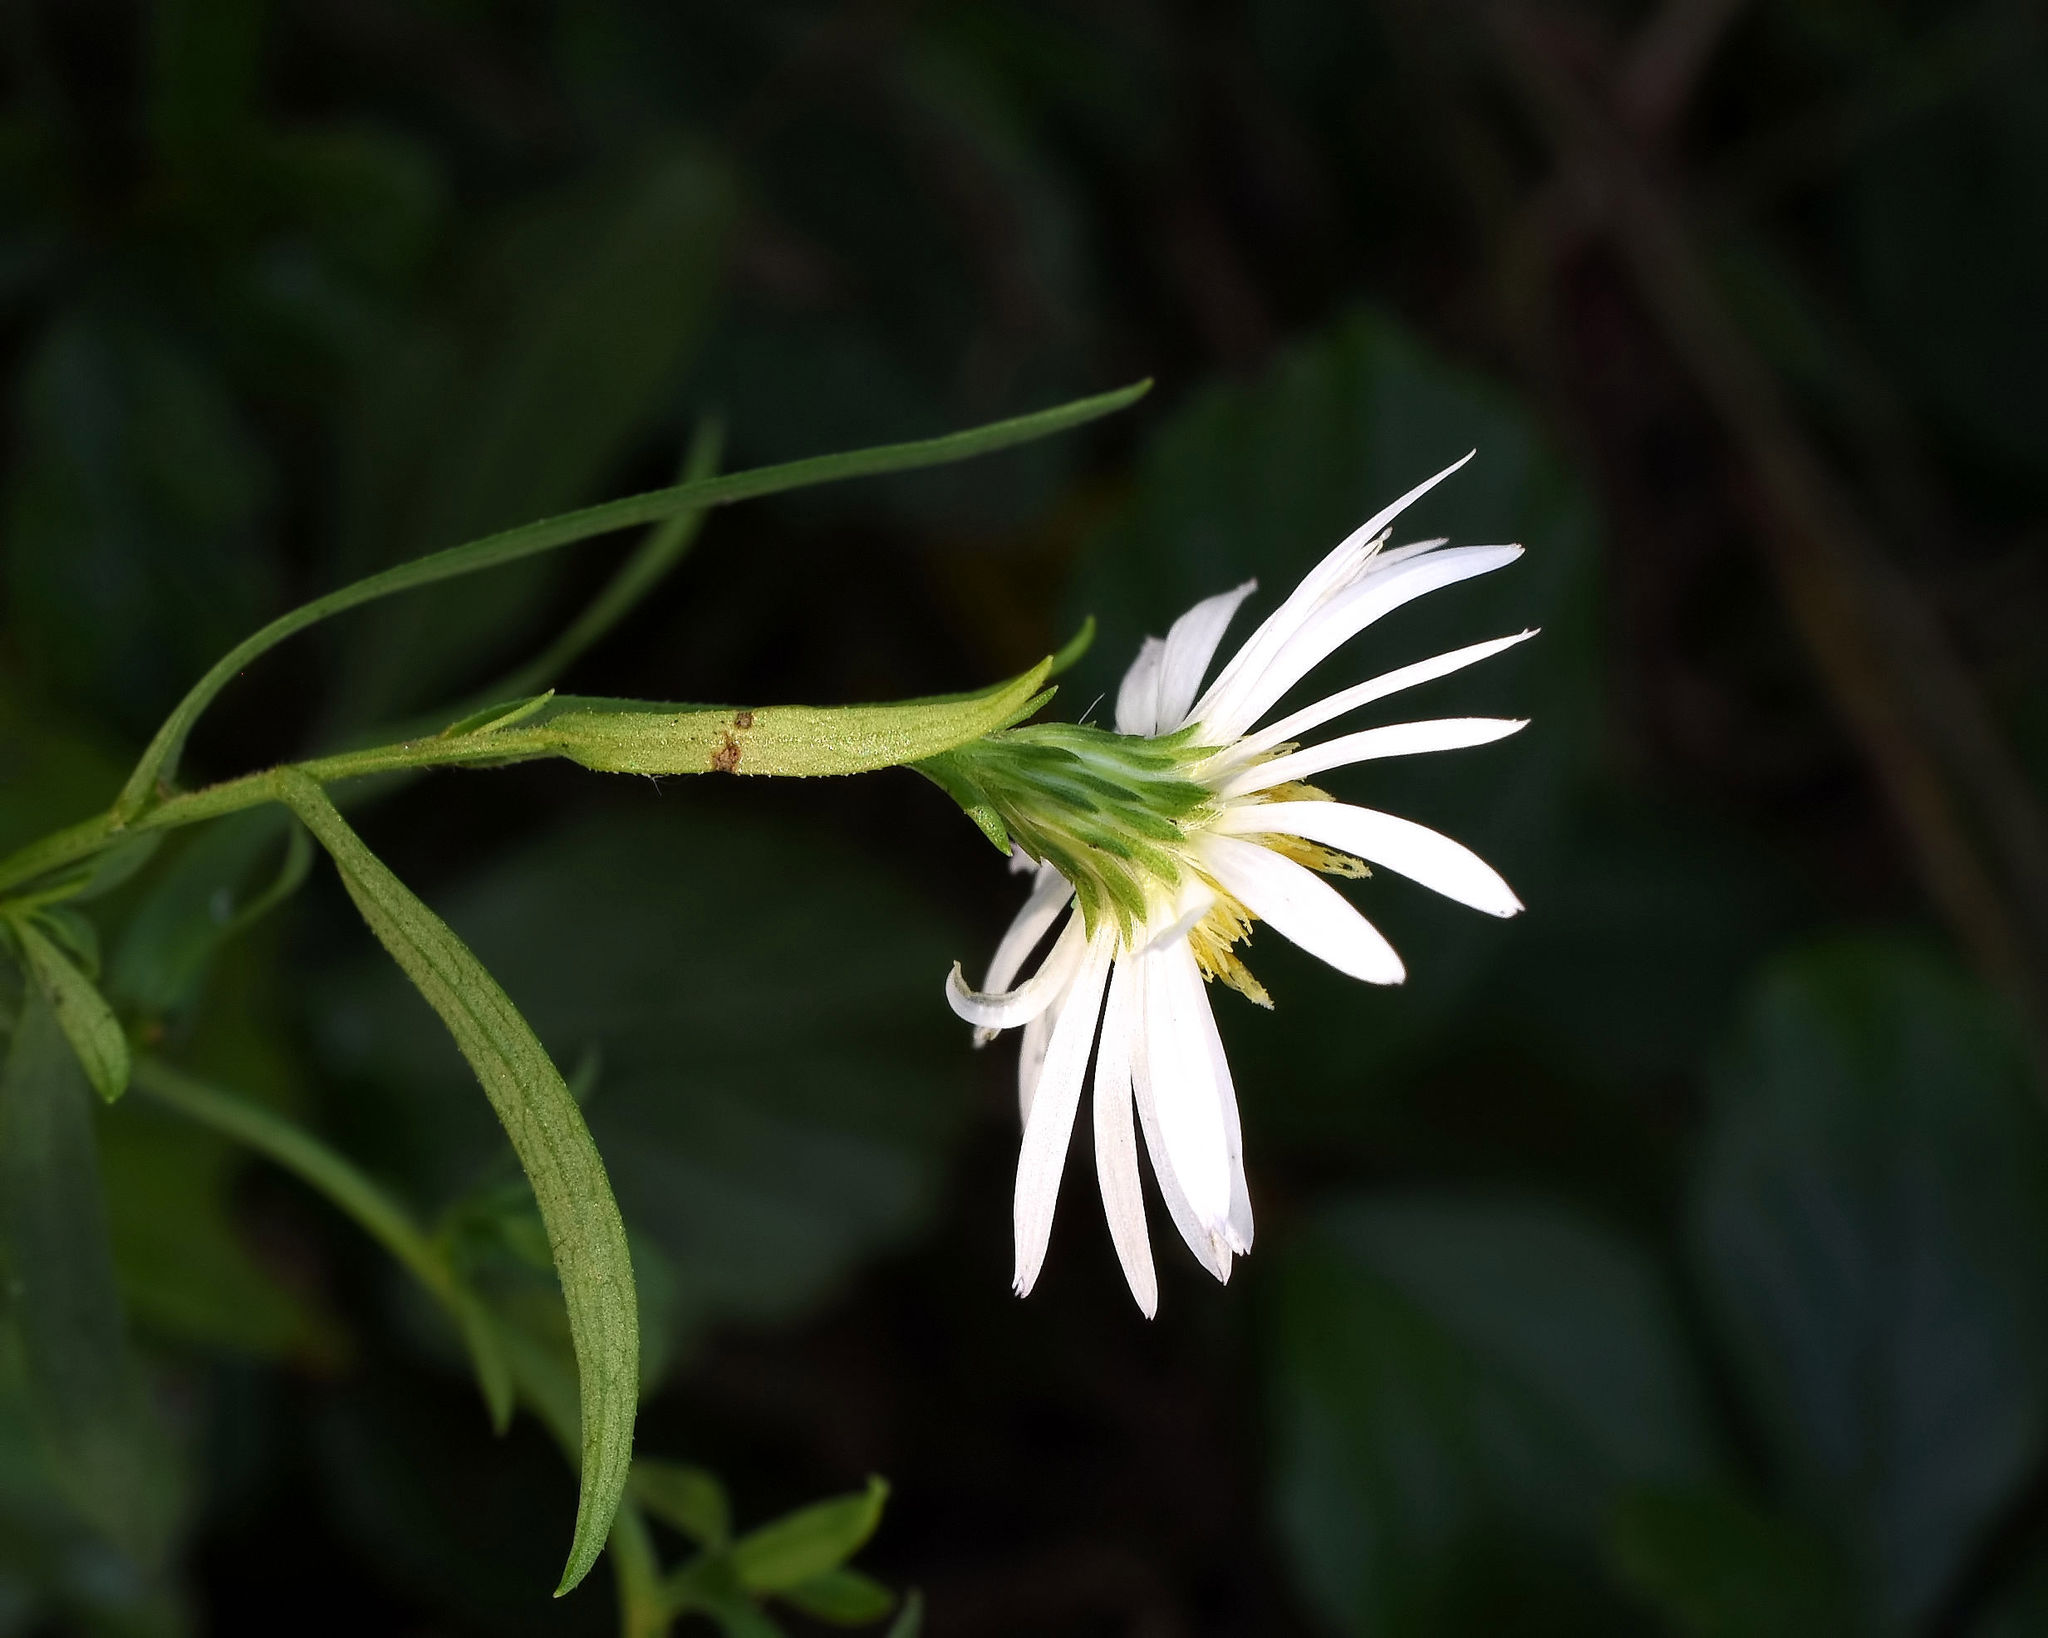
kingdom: Plantae
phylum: Tracheophyta
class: Magnoliopsida
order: Asterales
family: Asteraceae
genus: Symphyotrichum
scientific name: Symphyotrichum lanceolatum
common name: Panicled aster
